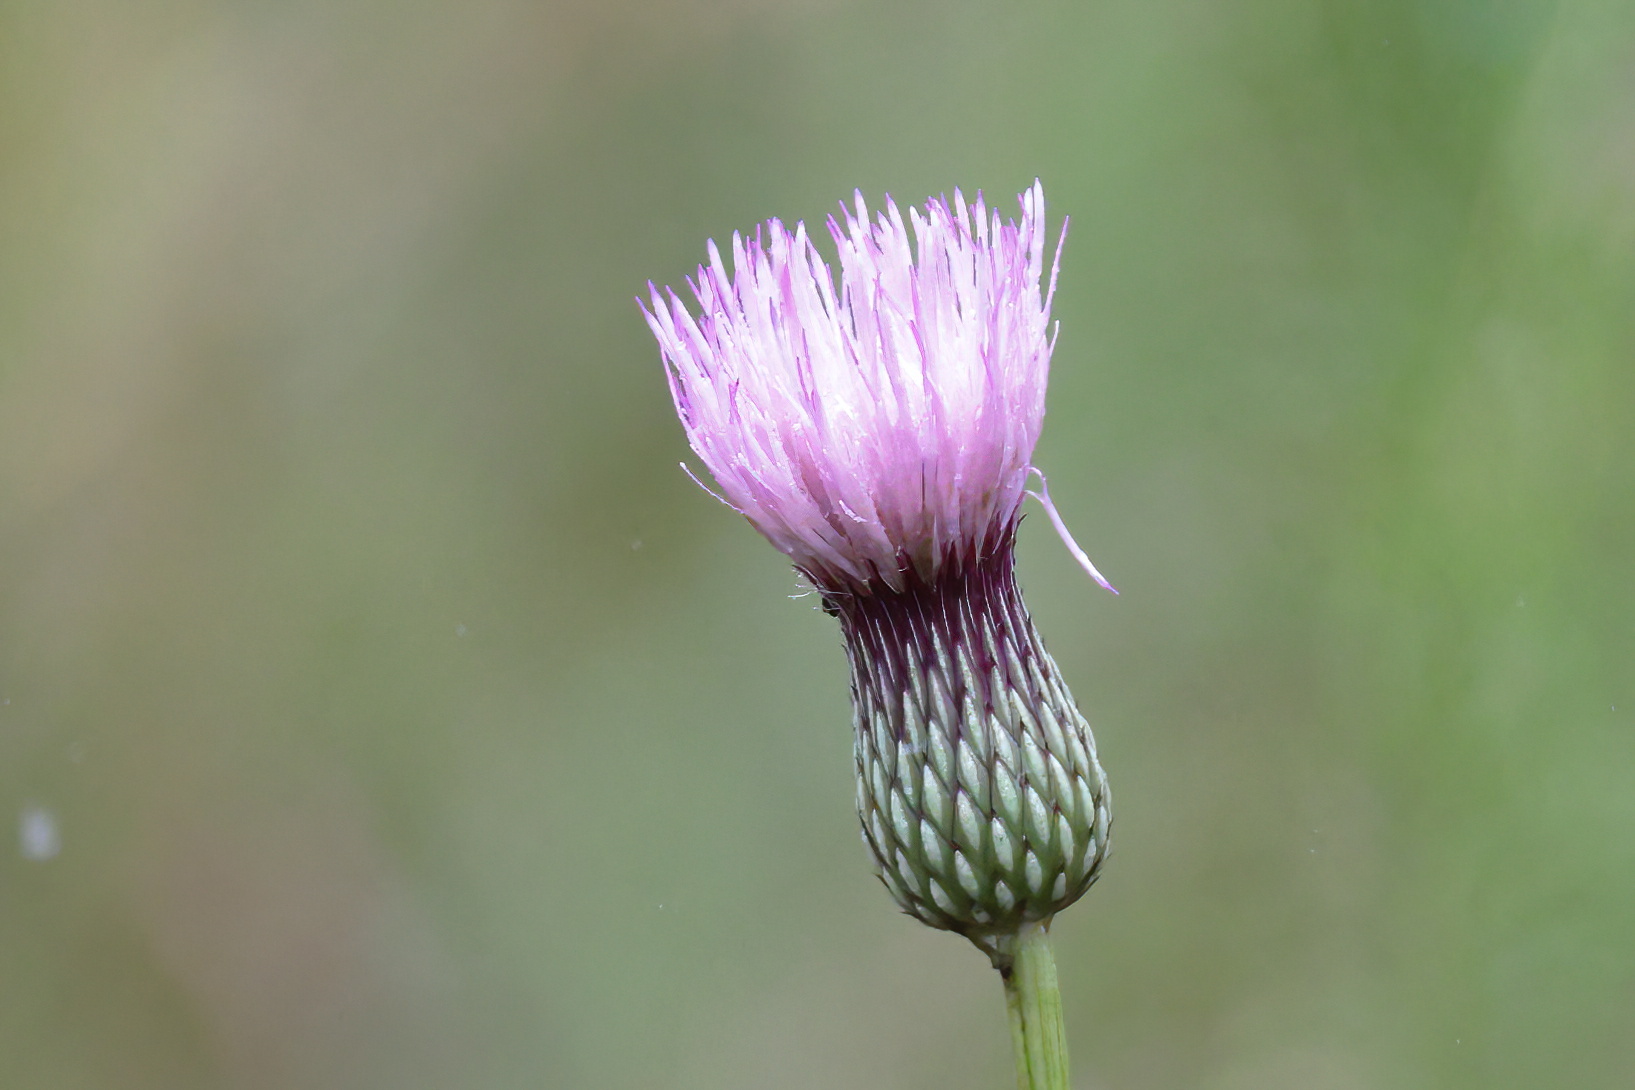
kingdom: Plantae
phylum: Tracheophyta
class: Magnoliopsida
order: Asterales
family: Asteraceae
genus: Cirsium
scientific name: Cirsium lecontei
